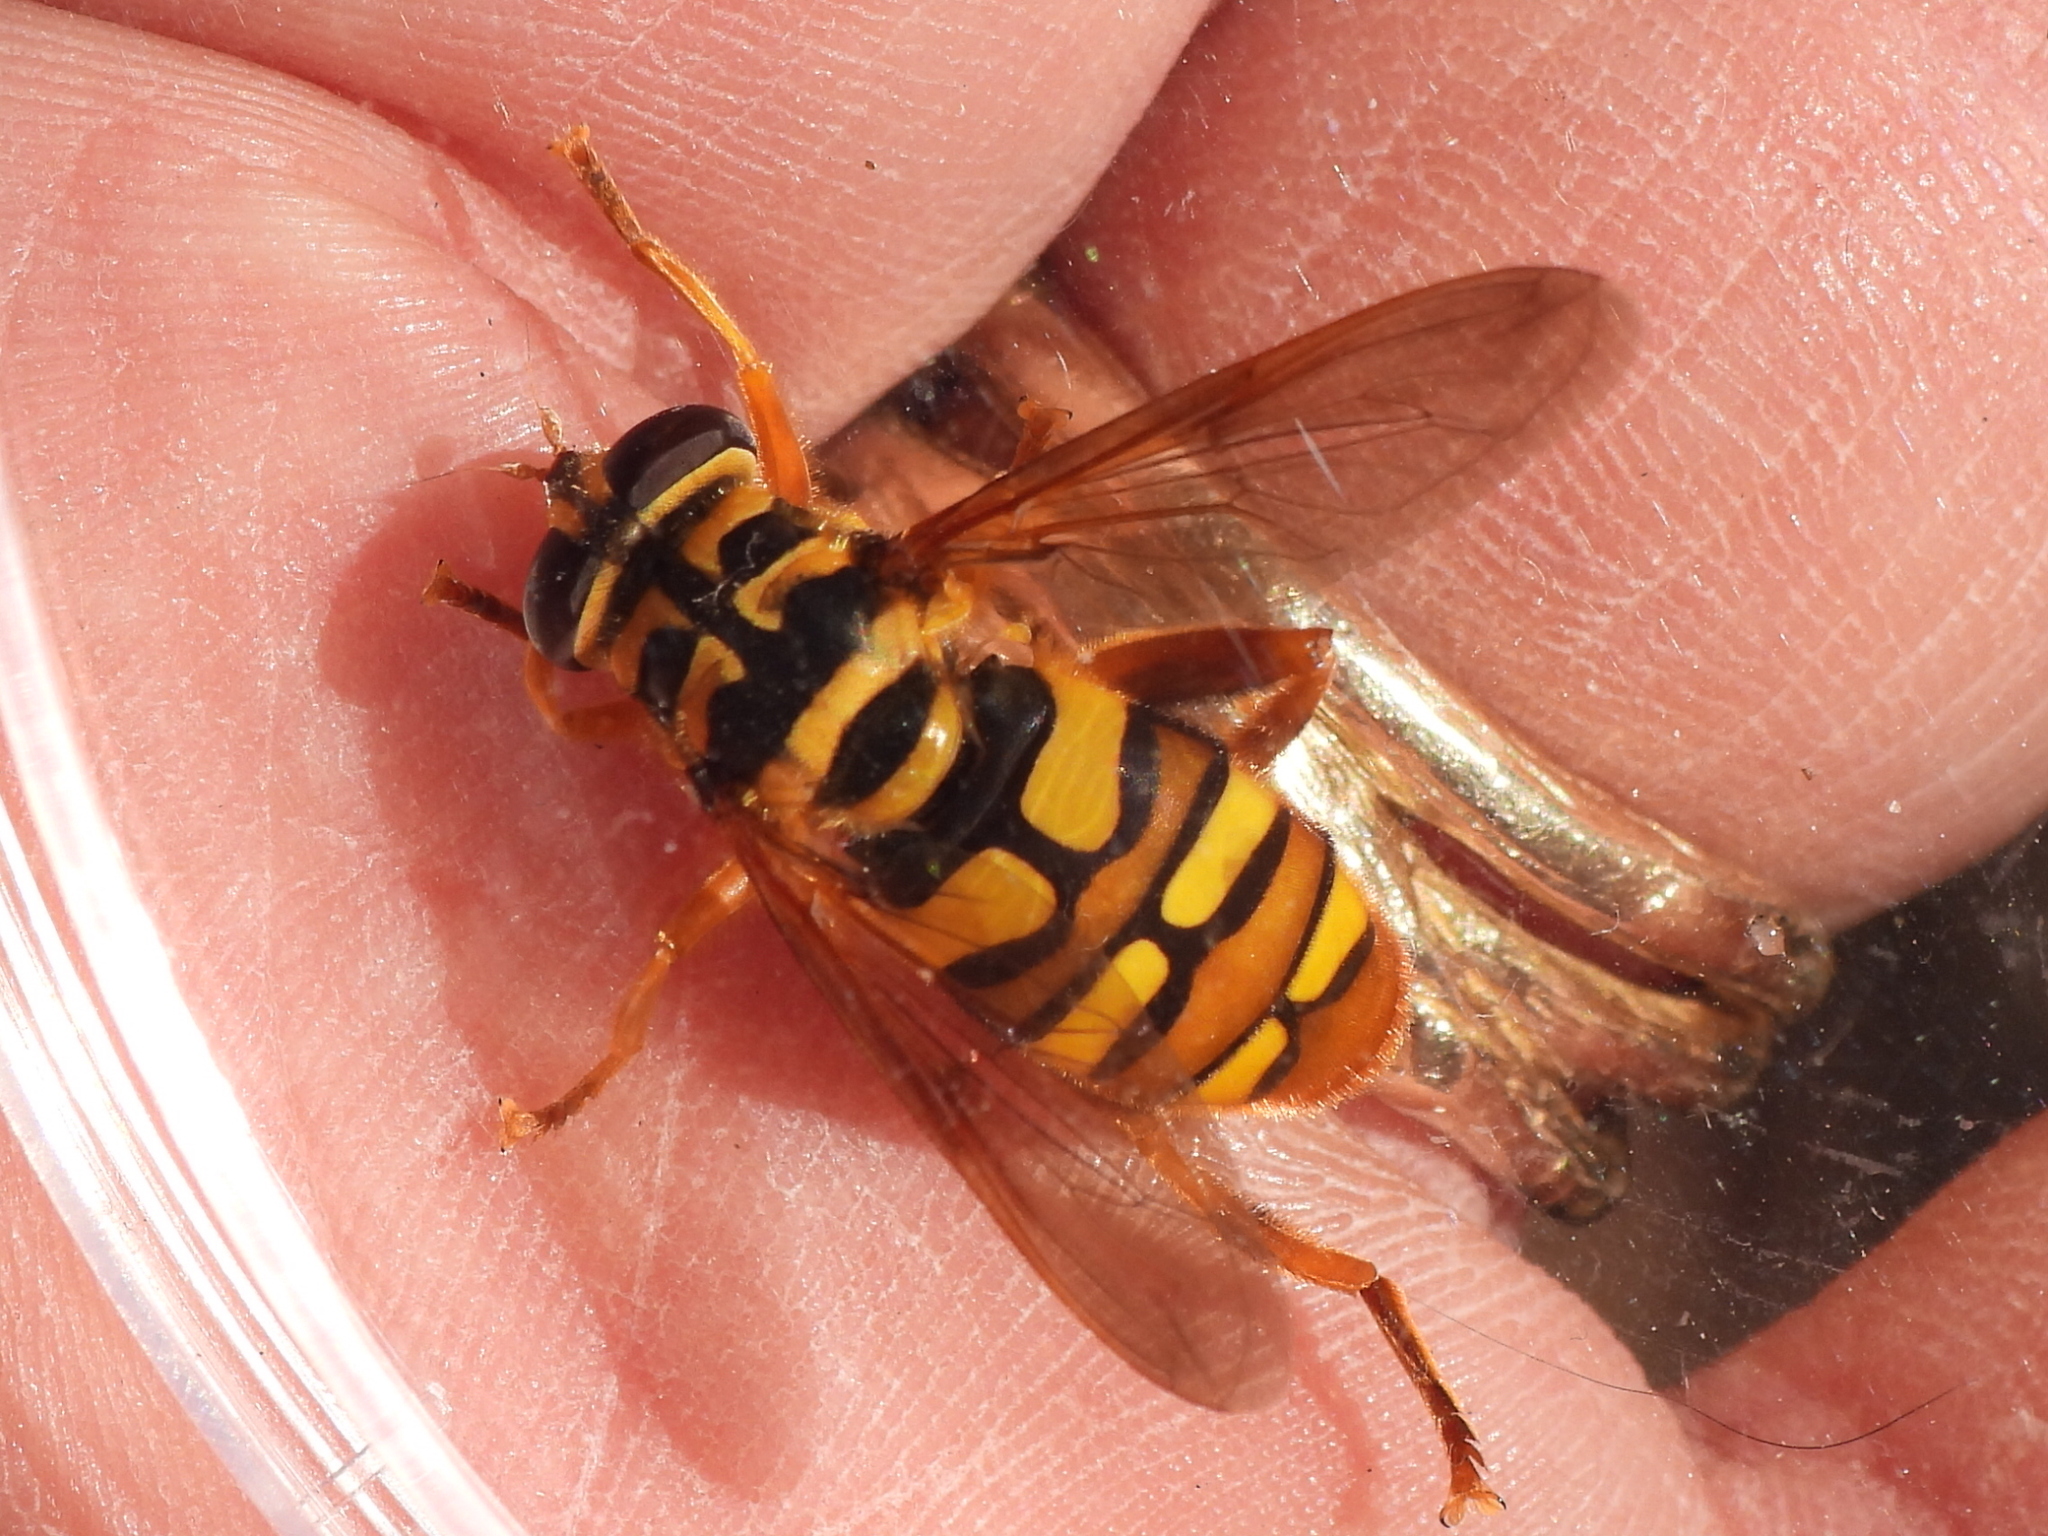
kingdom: Animalia
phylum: Arthropoda
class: Insecta
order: Diptera
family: Syrphidae
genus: Milesia
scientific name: Milesia virginiensis
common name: Virginia giant
